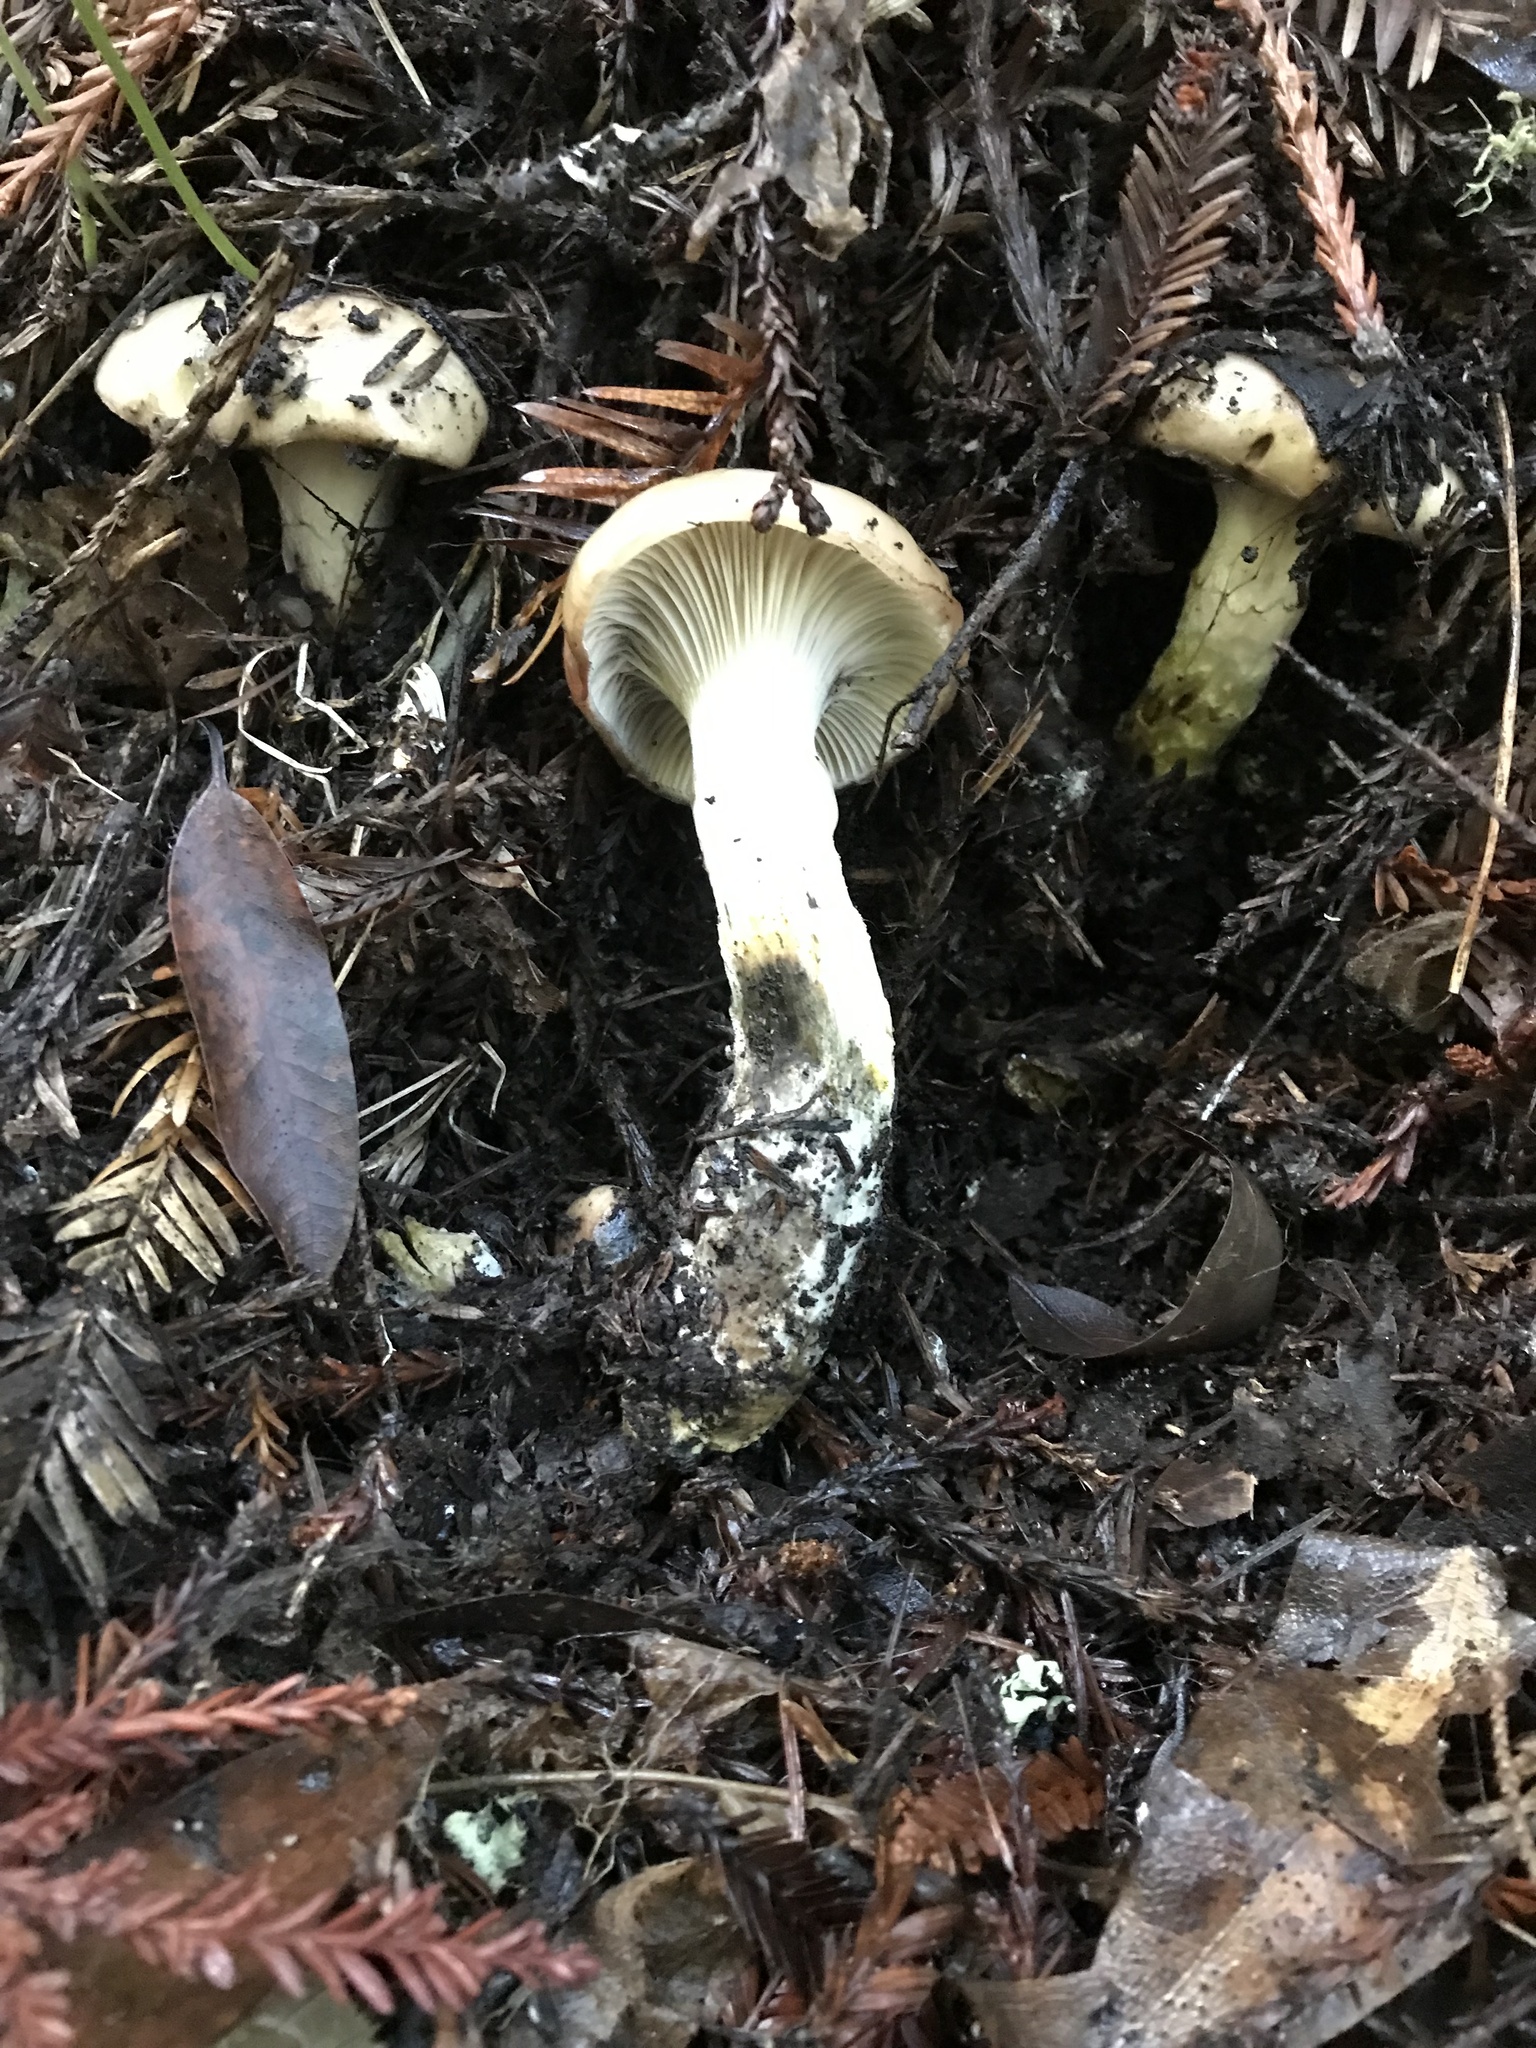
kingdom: Fungi
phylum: Basidiomycota
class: Agaricomycetes
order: Boletales
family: Gomphidiaceae
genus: Gomphidius
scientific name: Gomphidius oregonensis
